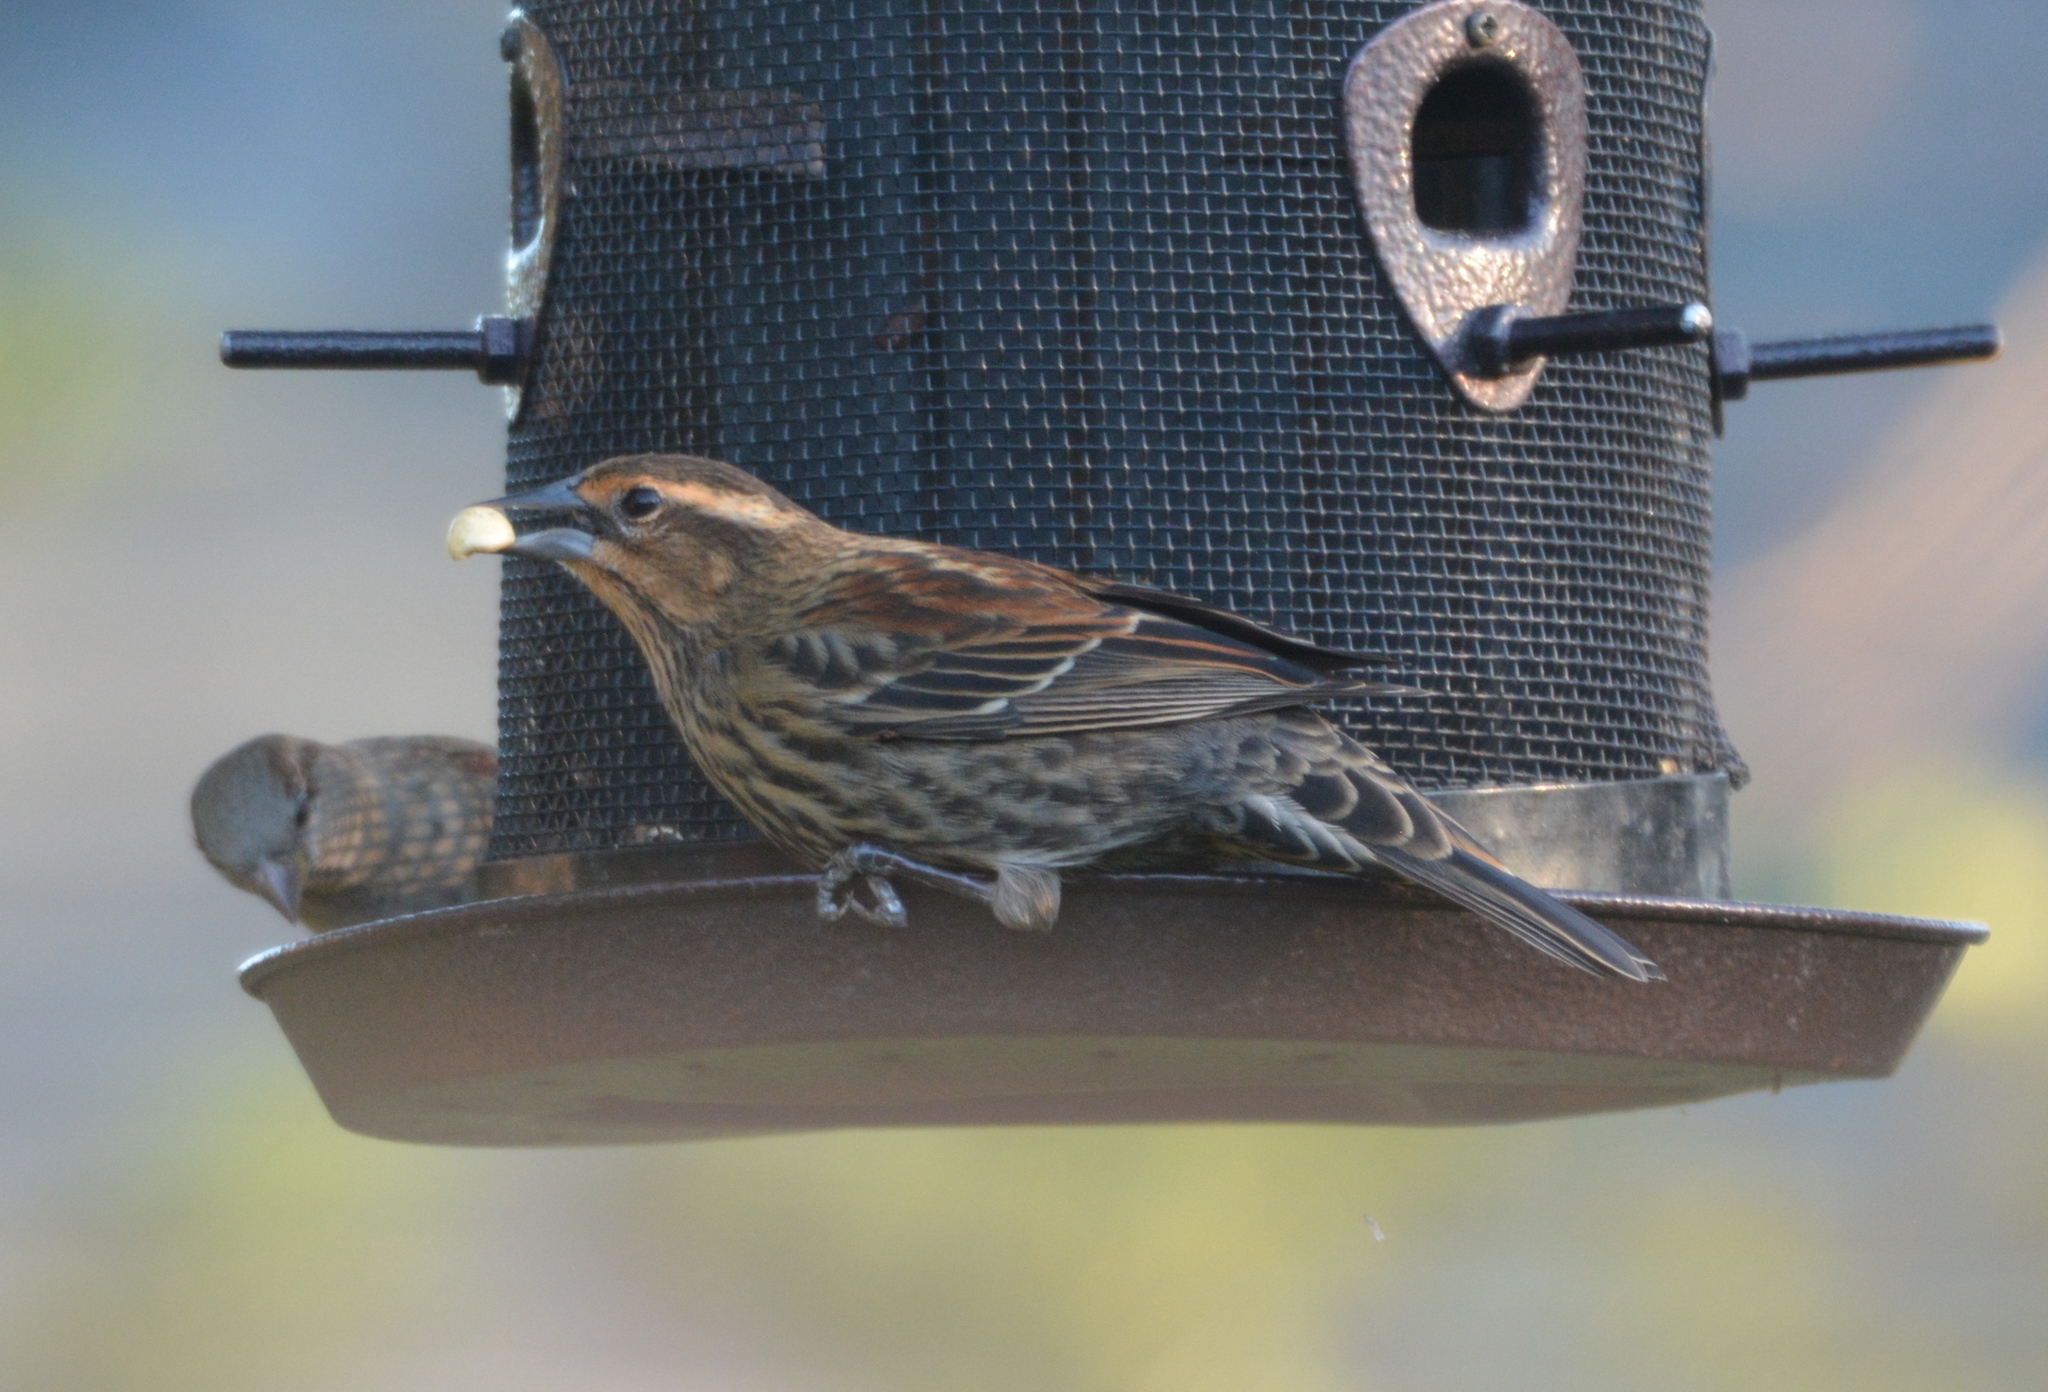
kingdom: Animalia
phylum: Chordata
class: Aves
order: Passeriformes
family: Icteridae
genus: Agelaius
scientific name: Agelaius phoeniceus
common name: Red-winged blackbird
